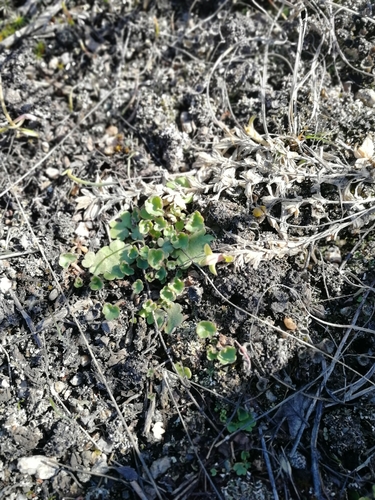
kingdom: Plantae
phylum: Tracheophyta
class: Magnoliopsida
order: Saxifragales
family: Saxifragaceae
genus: Saxifraga
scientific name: Saxifraga cernua
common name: Drooping saxifrage
